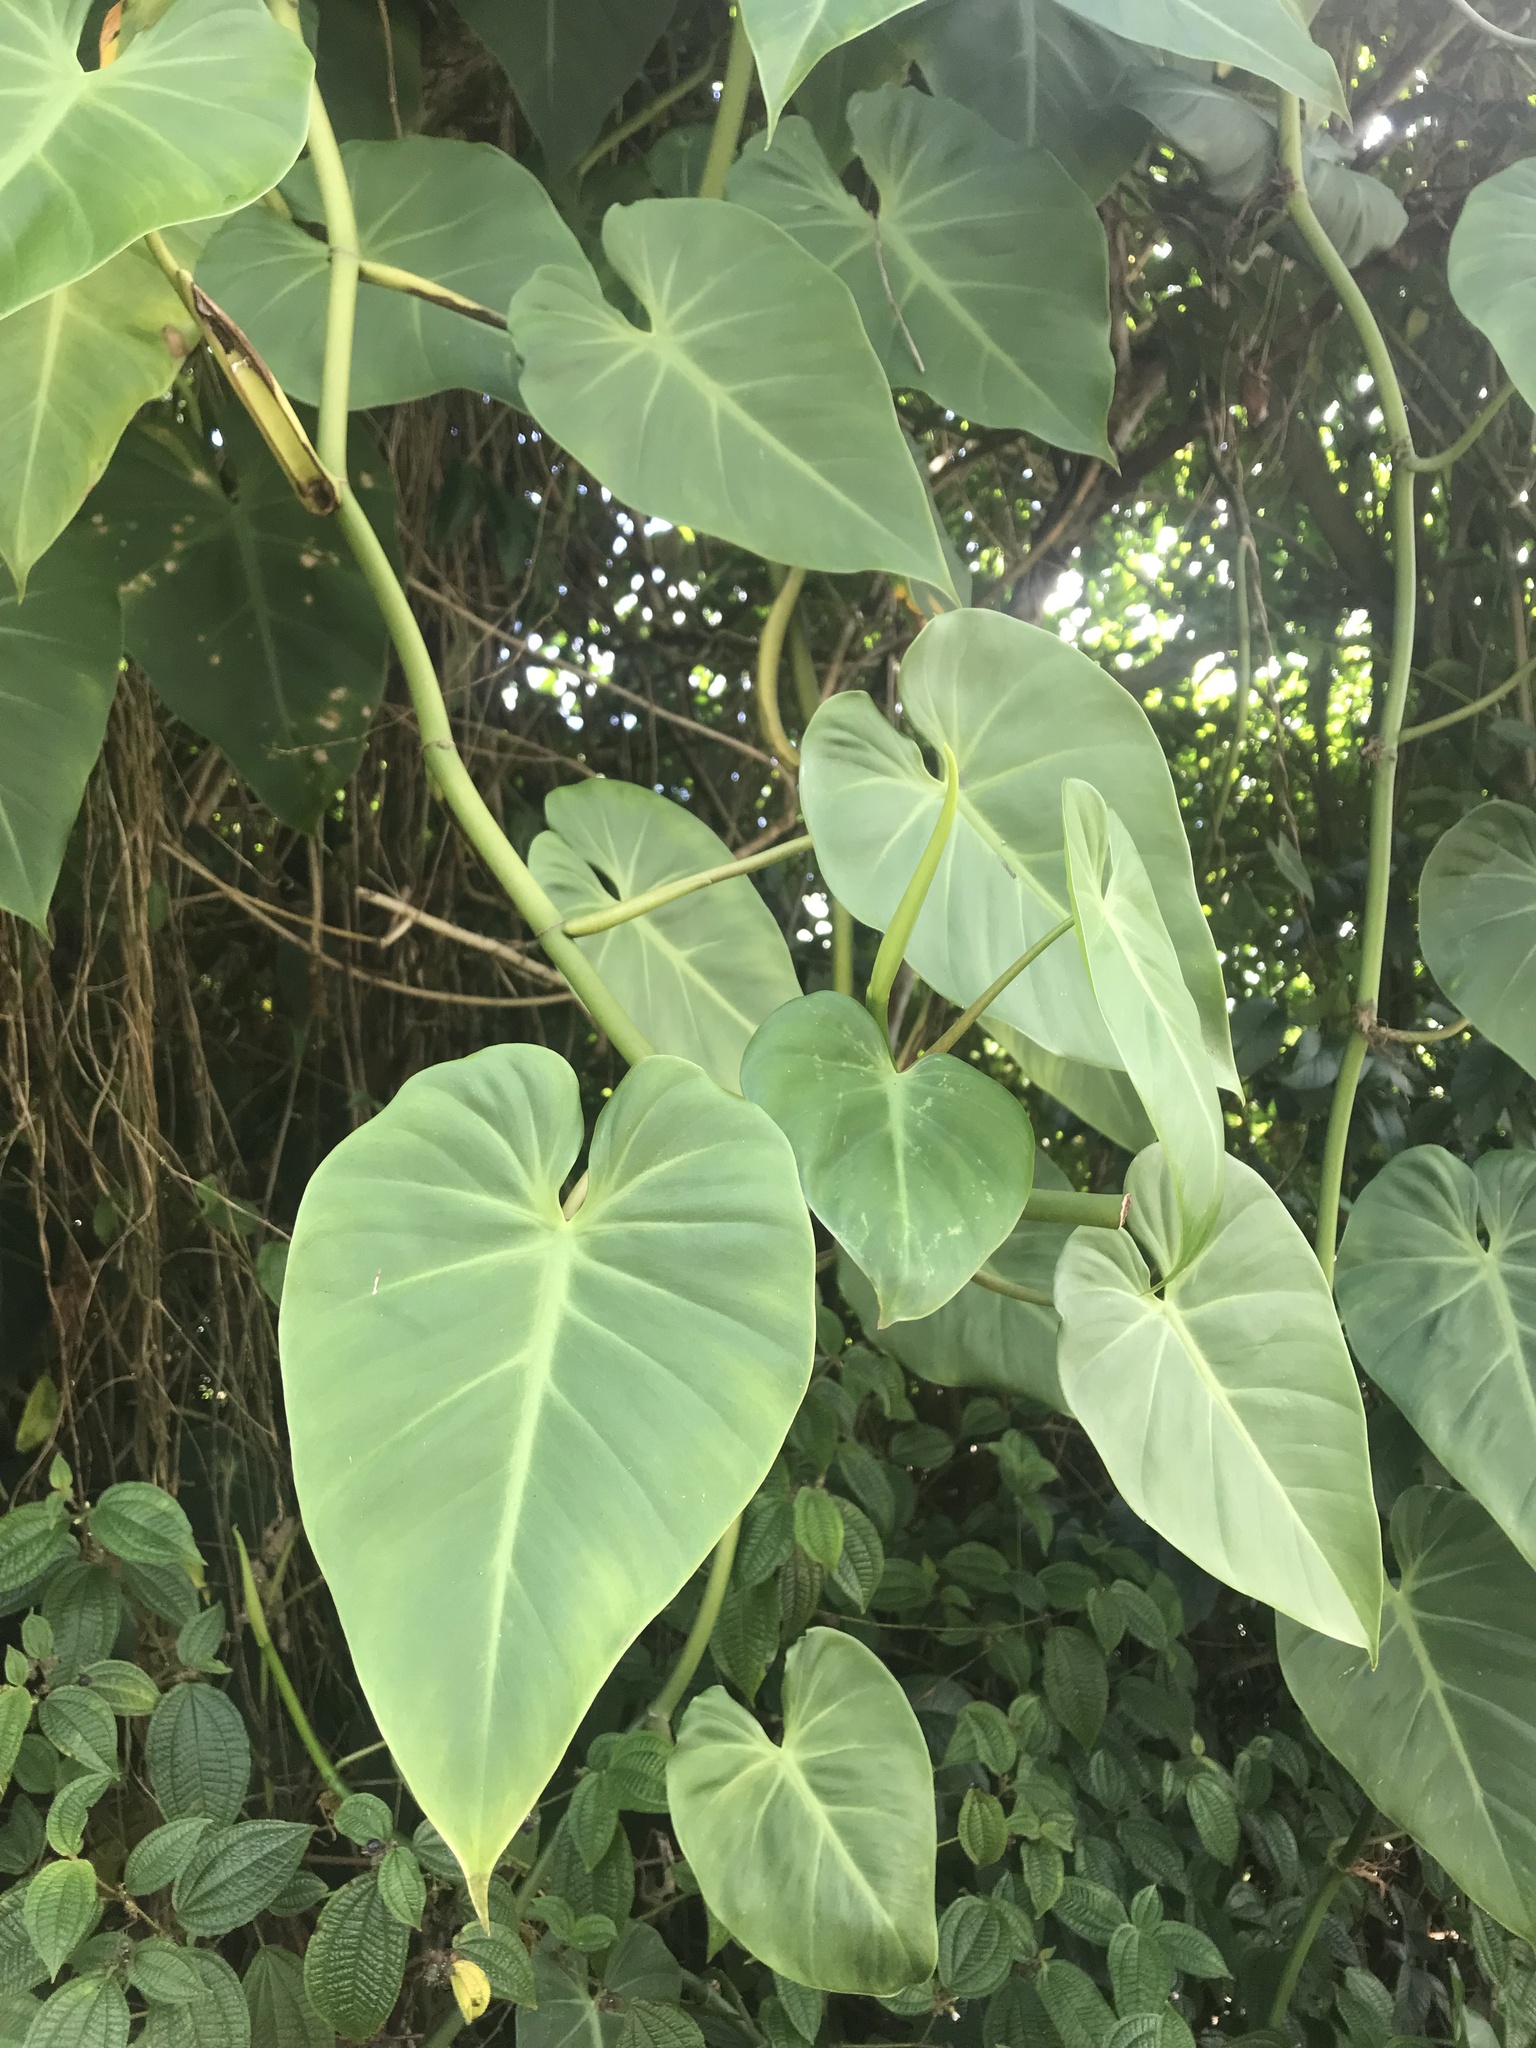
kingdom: Plantae
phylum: Tracheophyta
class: Liliopsida
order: Alismatales
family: Araceae
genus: Philodendron
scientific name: Philodendron hederaceum
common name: Vilevine
